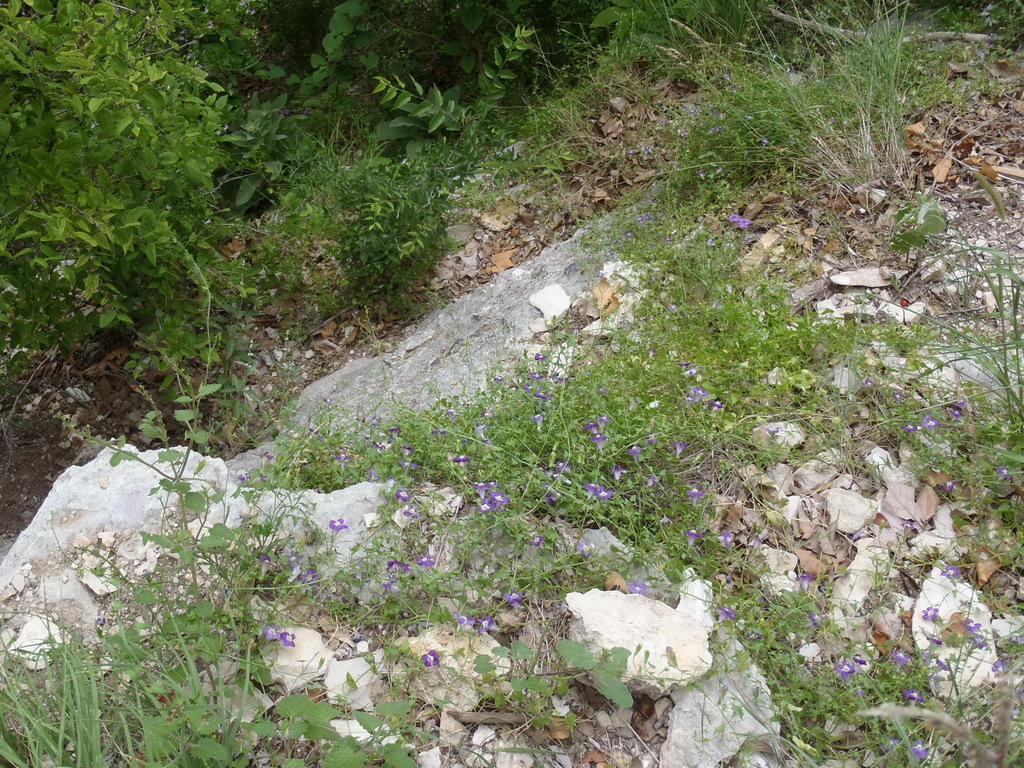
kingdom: Plantae
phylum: Tracheophyta
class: Magnoliopsida
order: Lamiales
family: Plantaginaceae
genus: Maurandella
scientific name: Maurandella antirrhiniflora
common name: Violet twining-snapdragon
